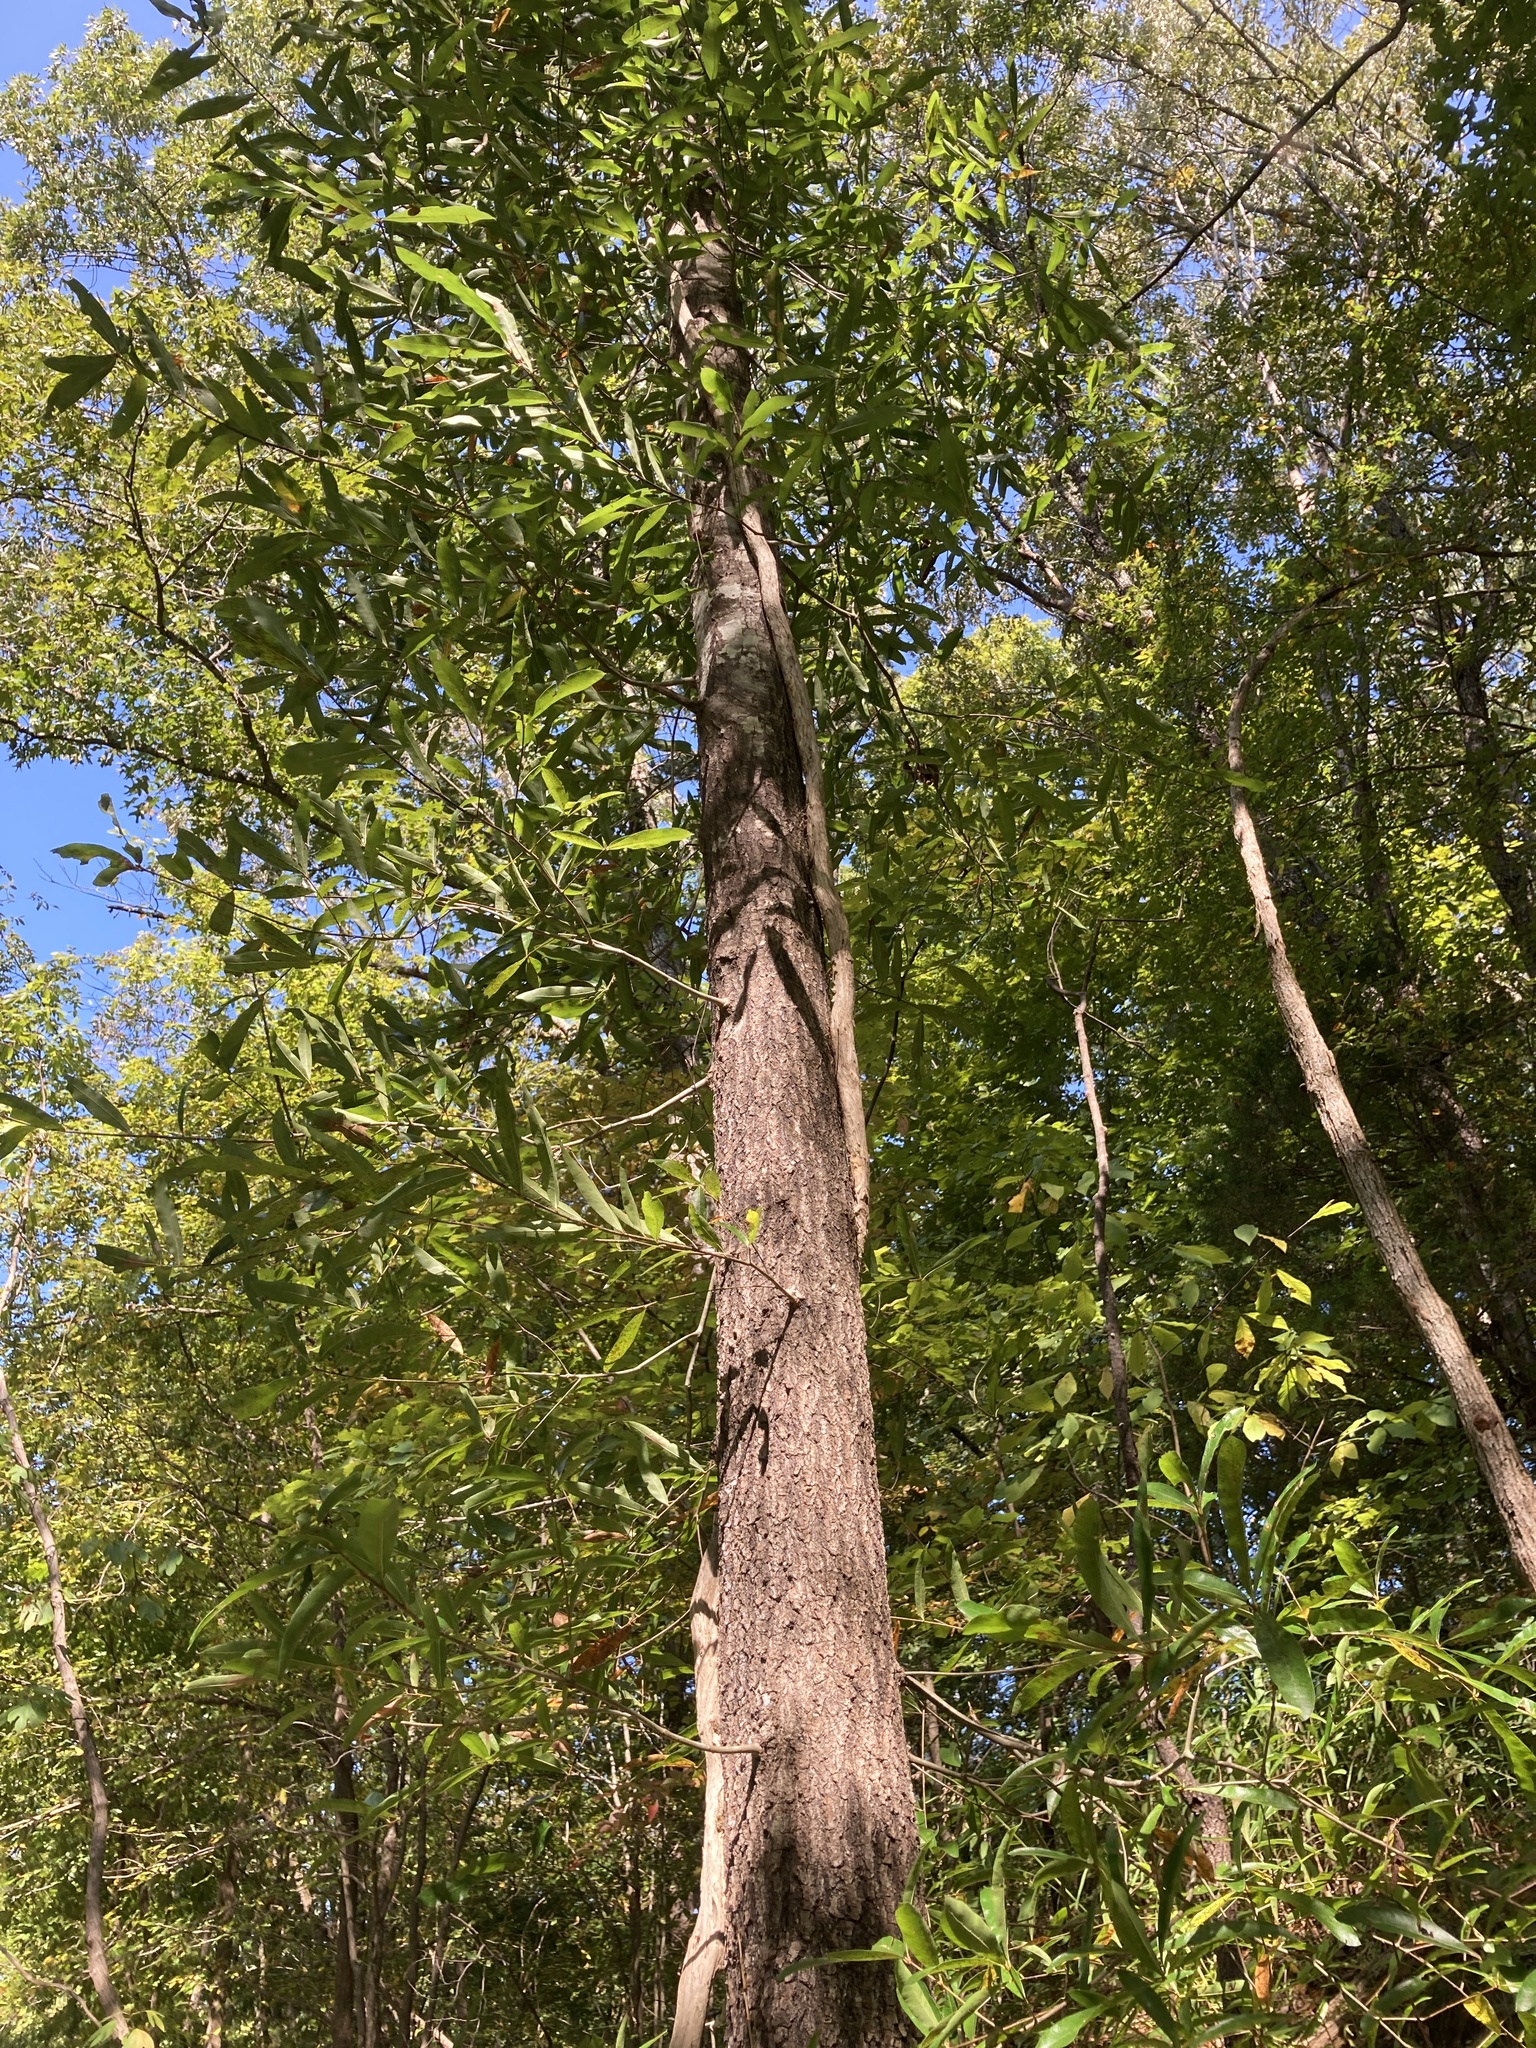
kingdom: Plantae
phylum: Tracheophyta
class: Magnoliopsida
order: Fagales
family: Fagaceae
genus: Quercus
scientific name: Quercus phellos
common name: Willow oak
